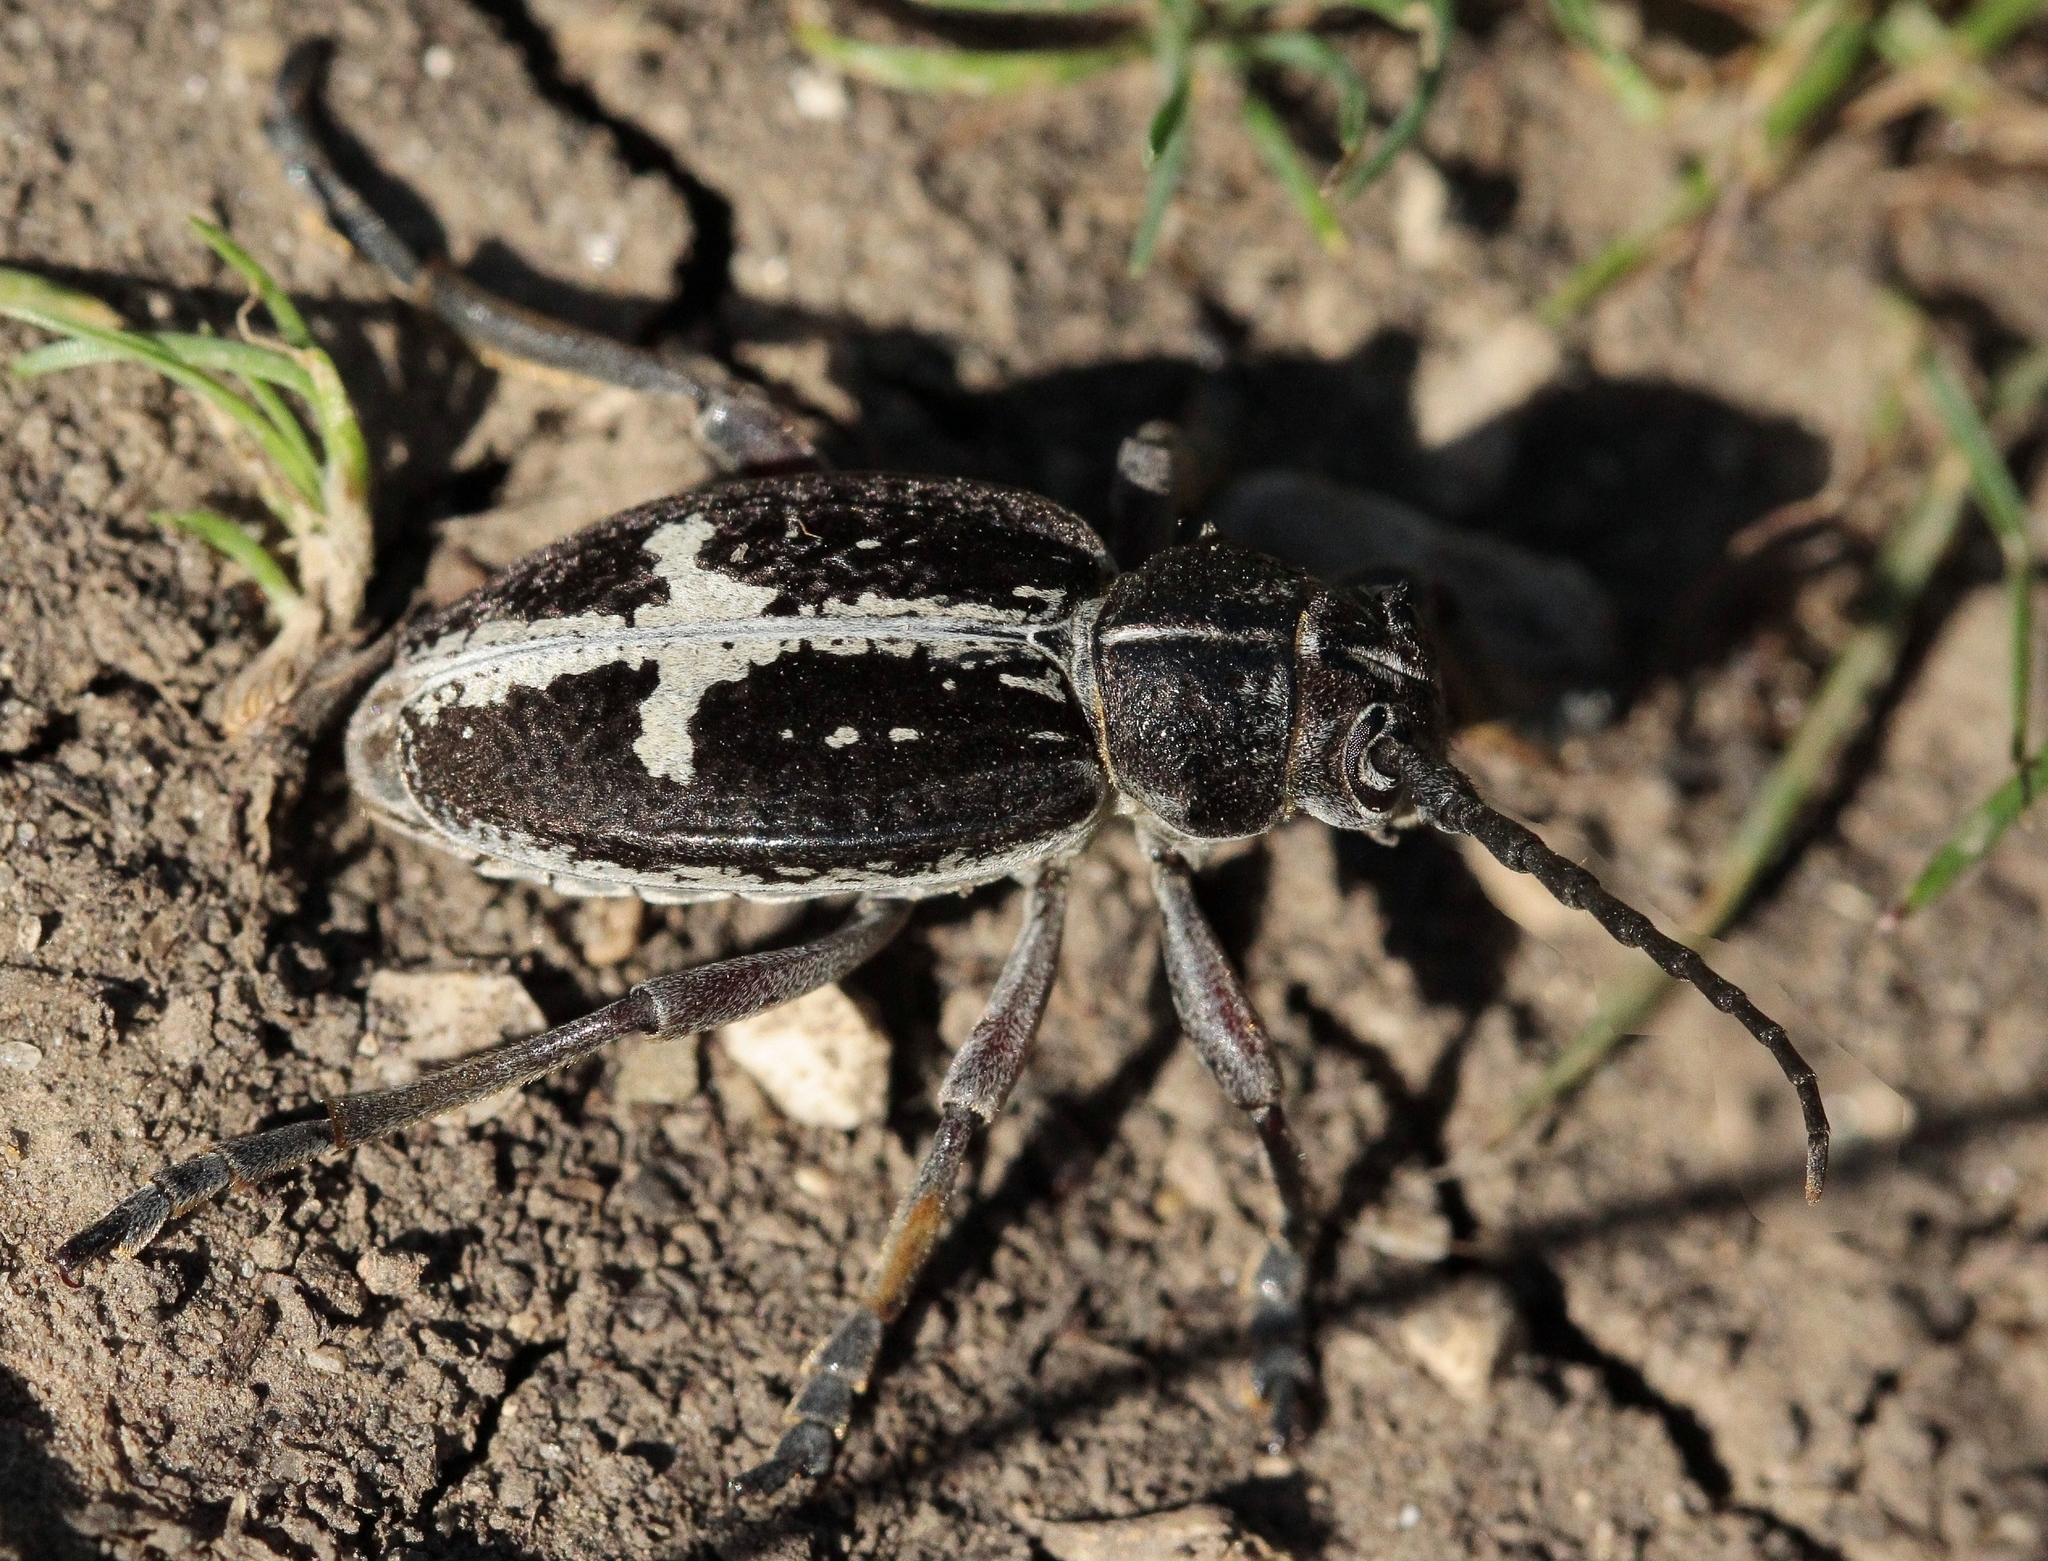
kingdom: Animalia
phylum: Arthropoda
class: Insecta
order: Coleoptera
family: Cerambycidae
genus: Dorcadion
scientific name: Dorcadion equestre
